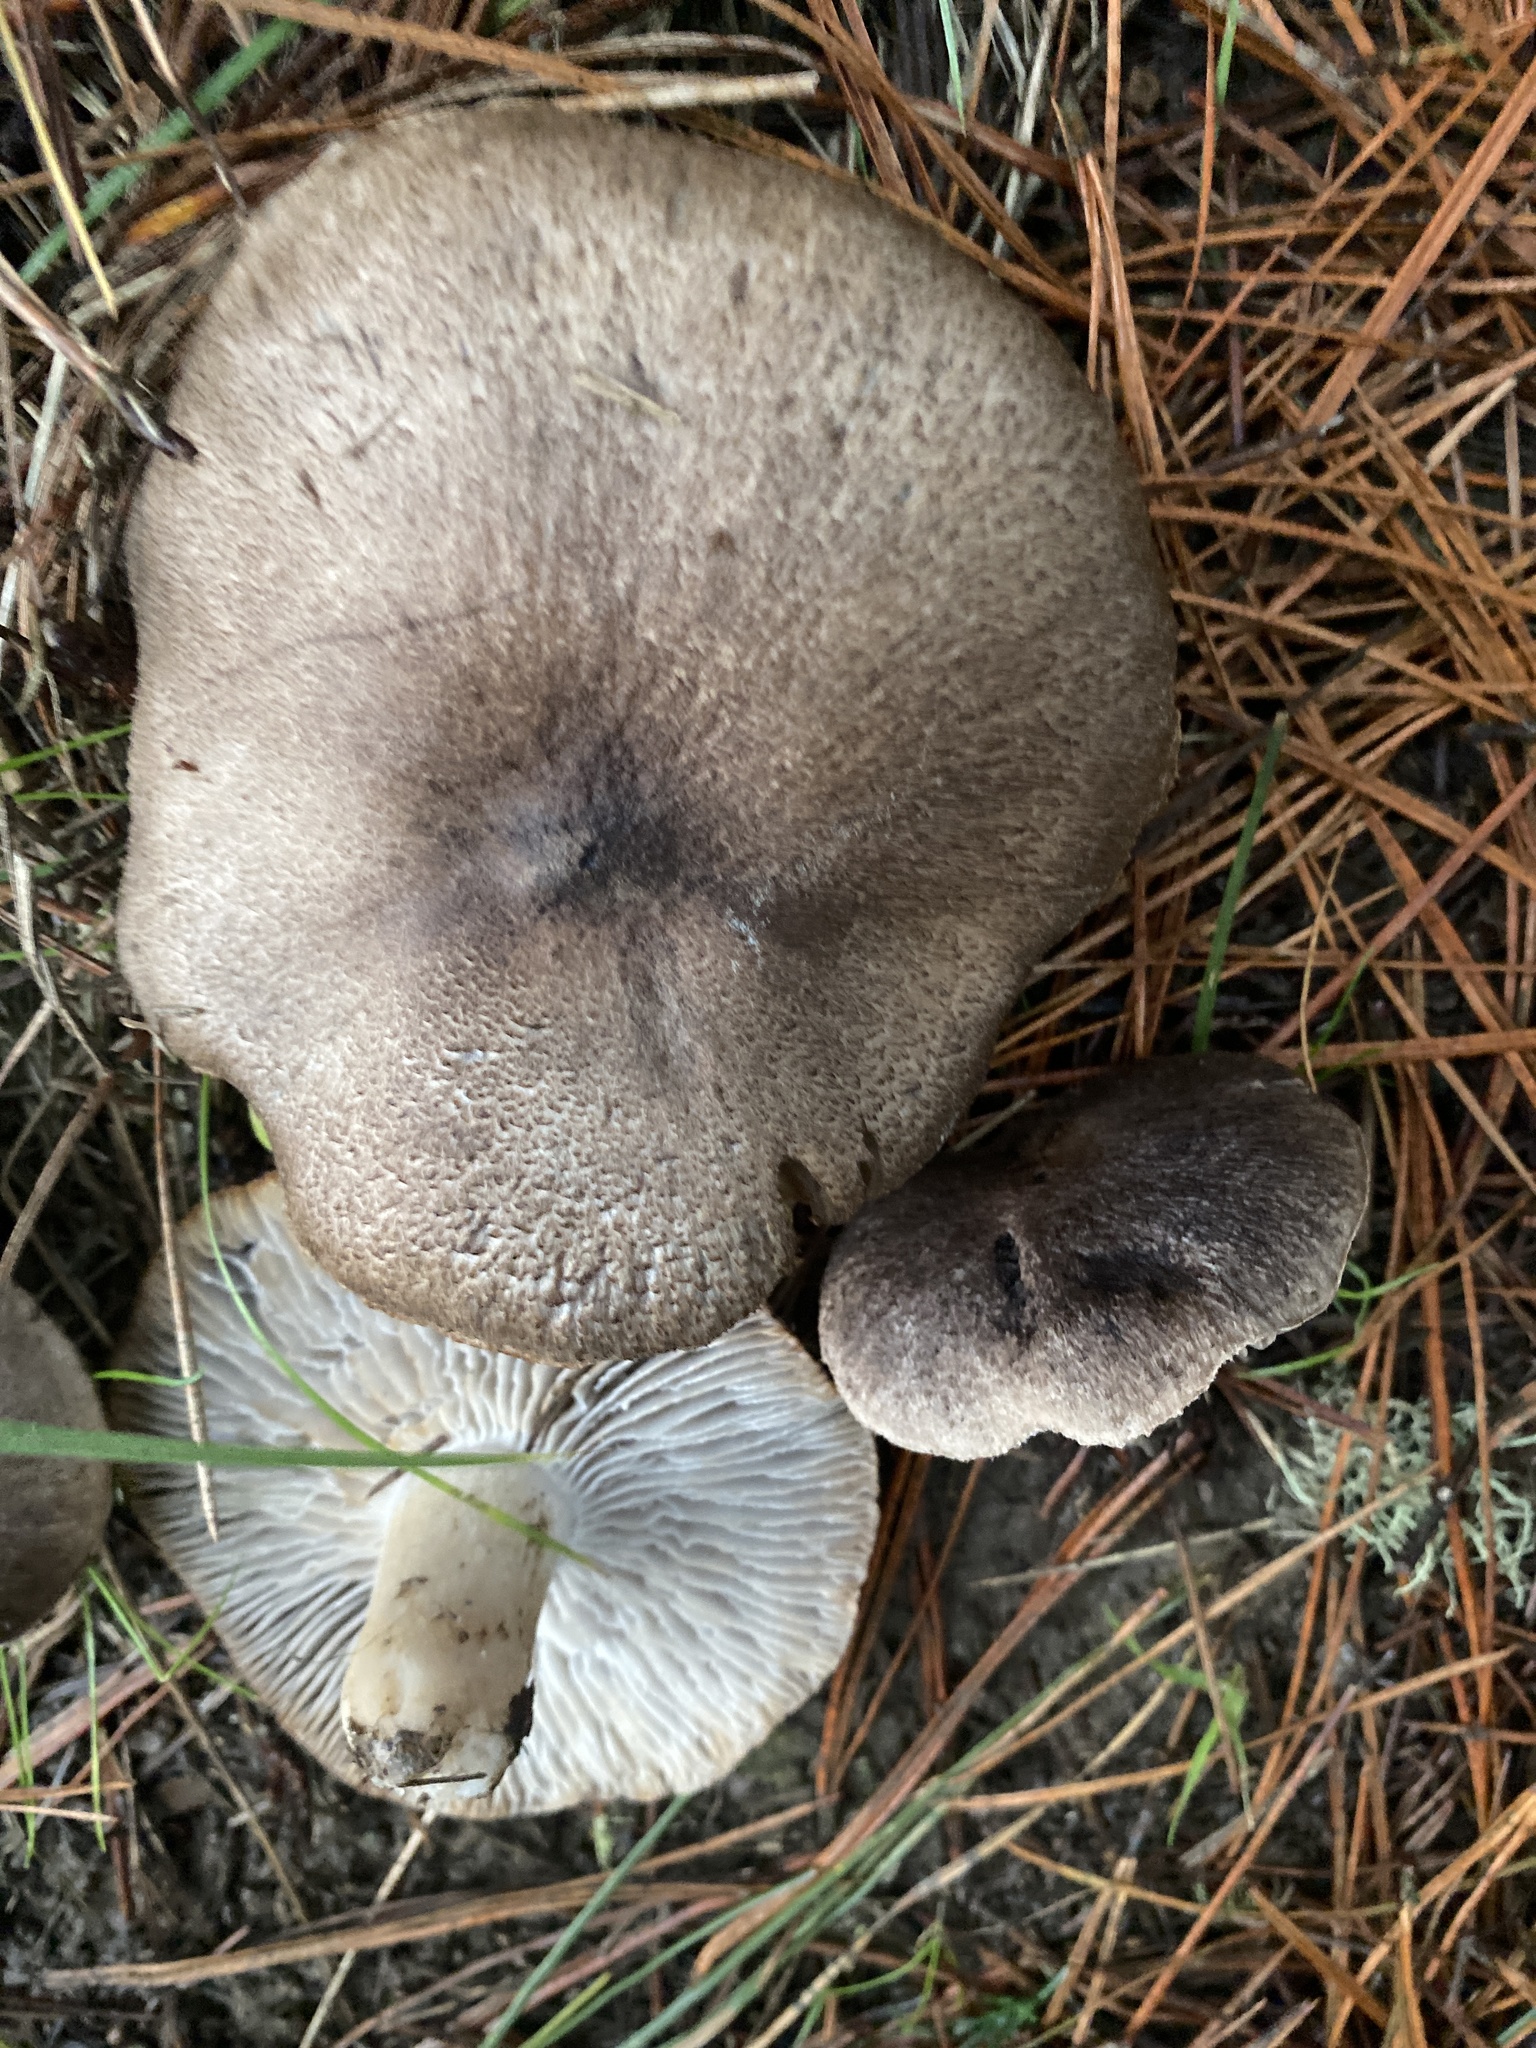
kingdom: Fungi
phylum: Basidiomycota
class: Agaricomycetes
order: Agaricales
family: Tricholomataceae
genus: Tricholoma
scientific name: Tricholoma terreum
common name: Grey knight
